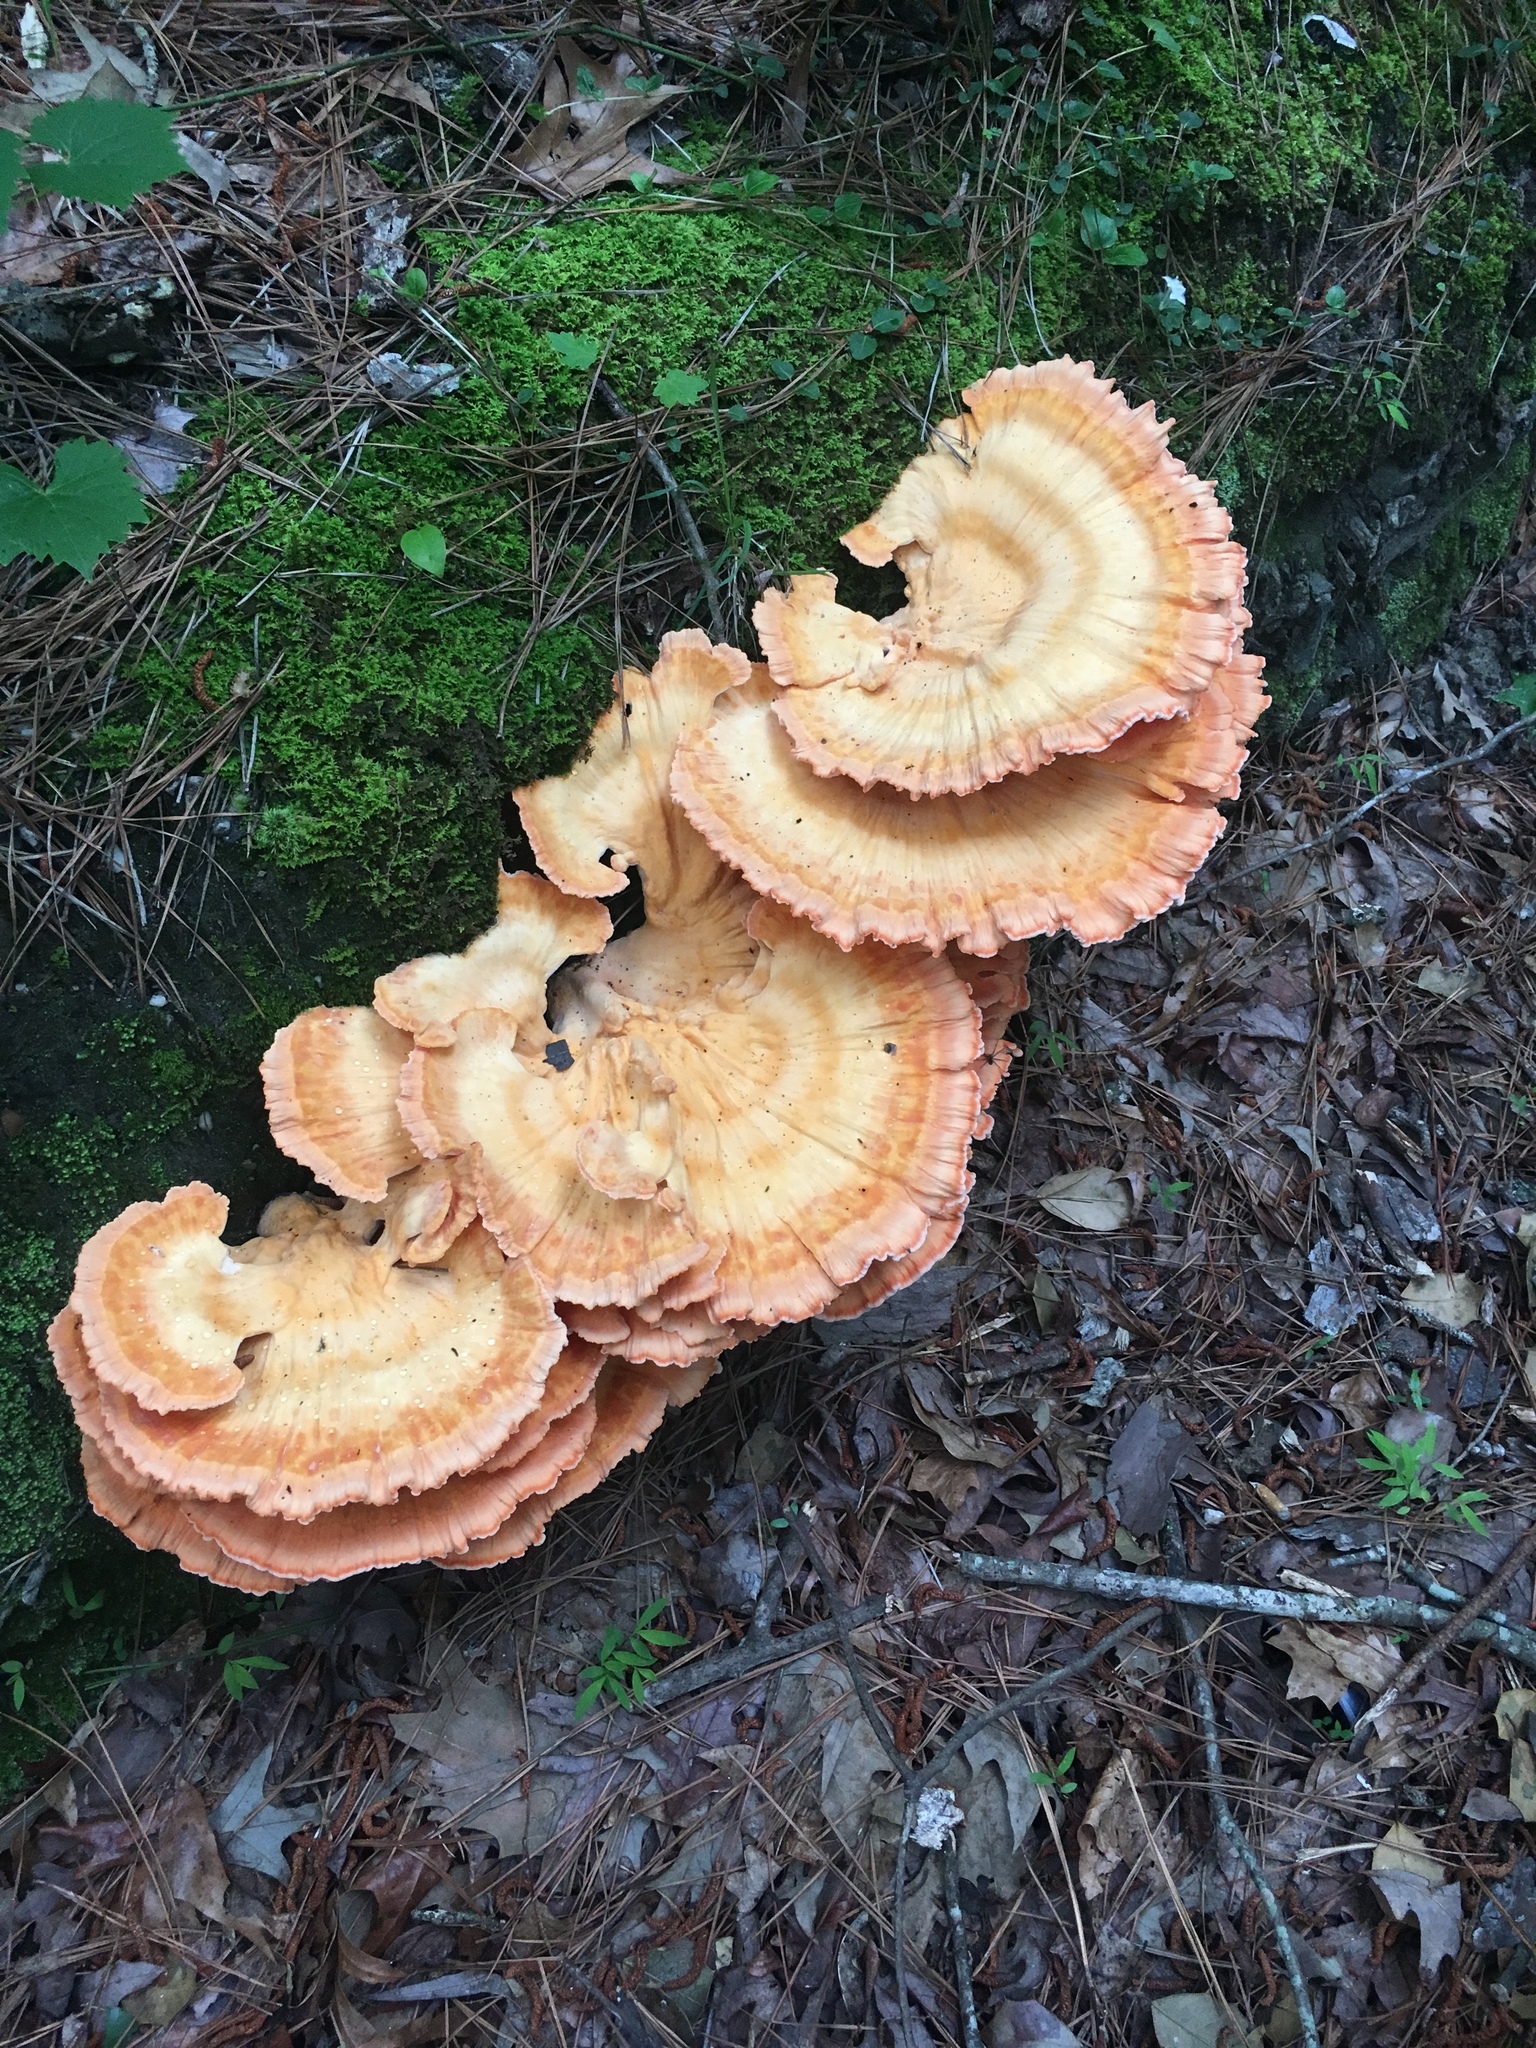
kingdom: Fungi
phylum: Basidiomycota
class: Agaricomycetes
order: Polyporales
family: Laetiporaceae
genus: Laetiporus
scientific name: Laetiporus sulphureus
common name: Chicken of the woods
